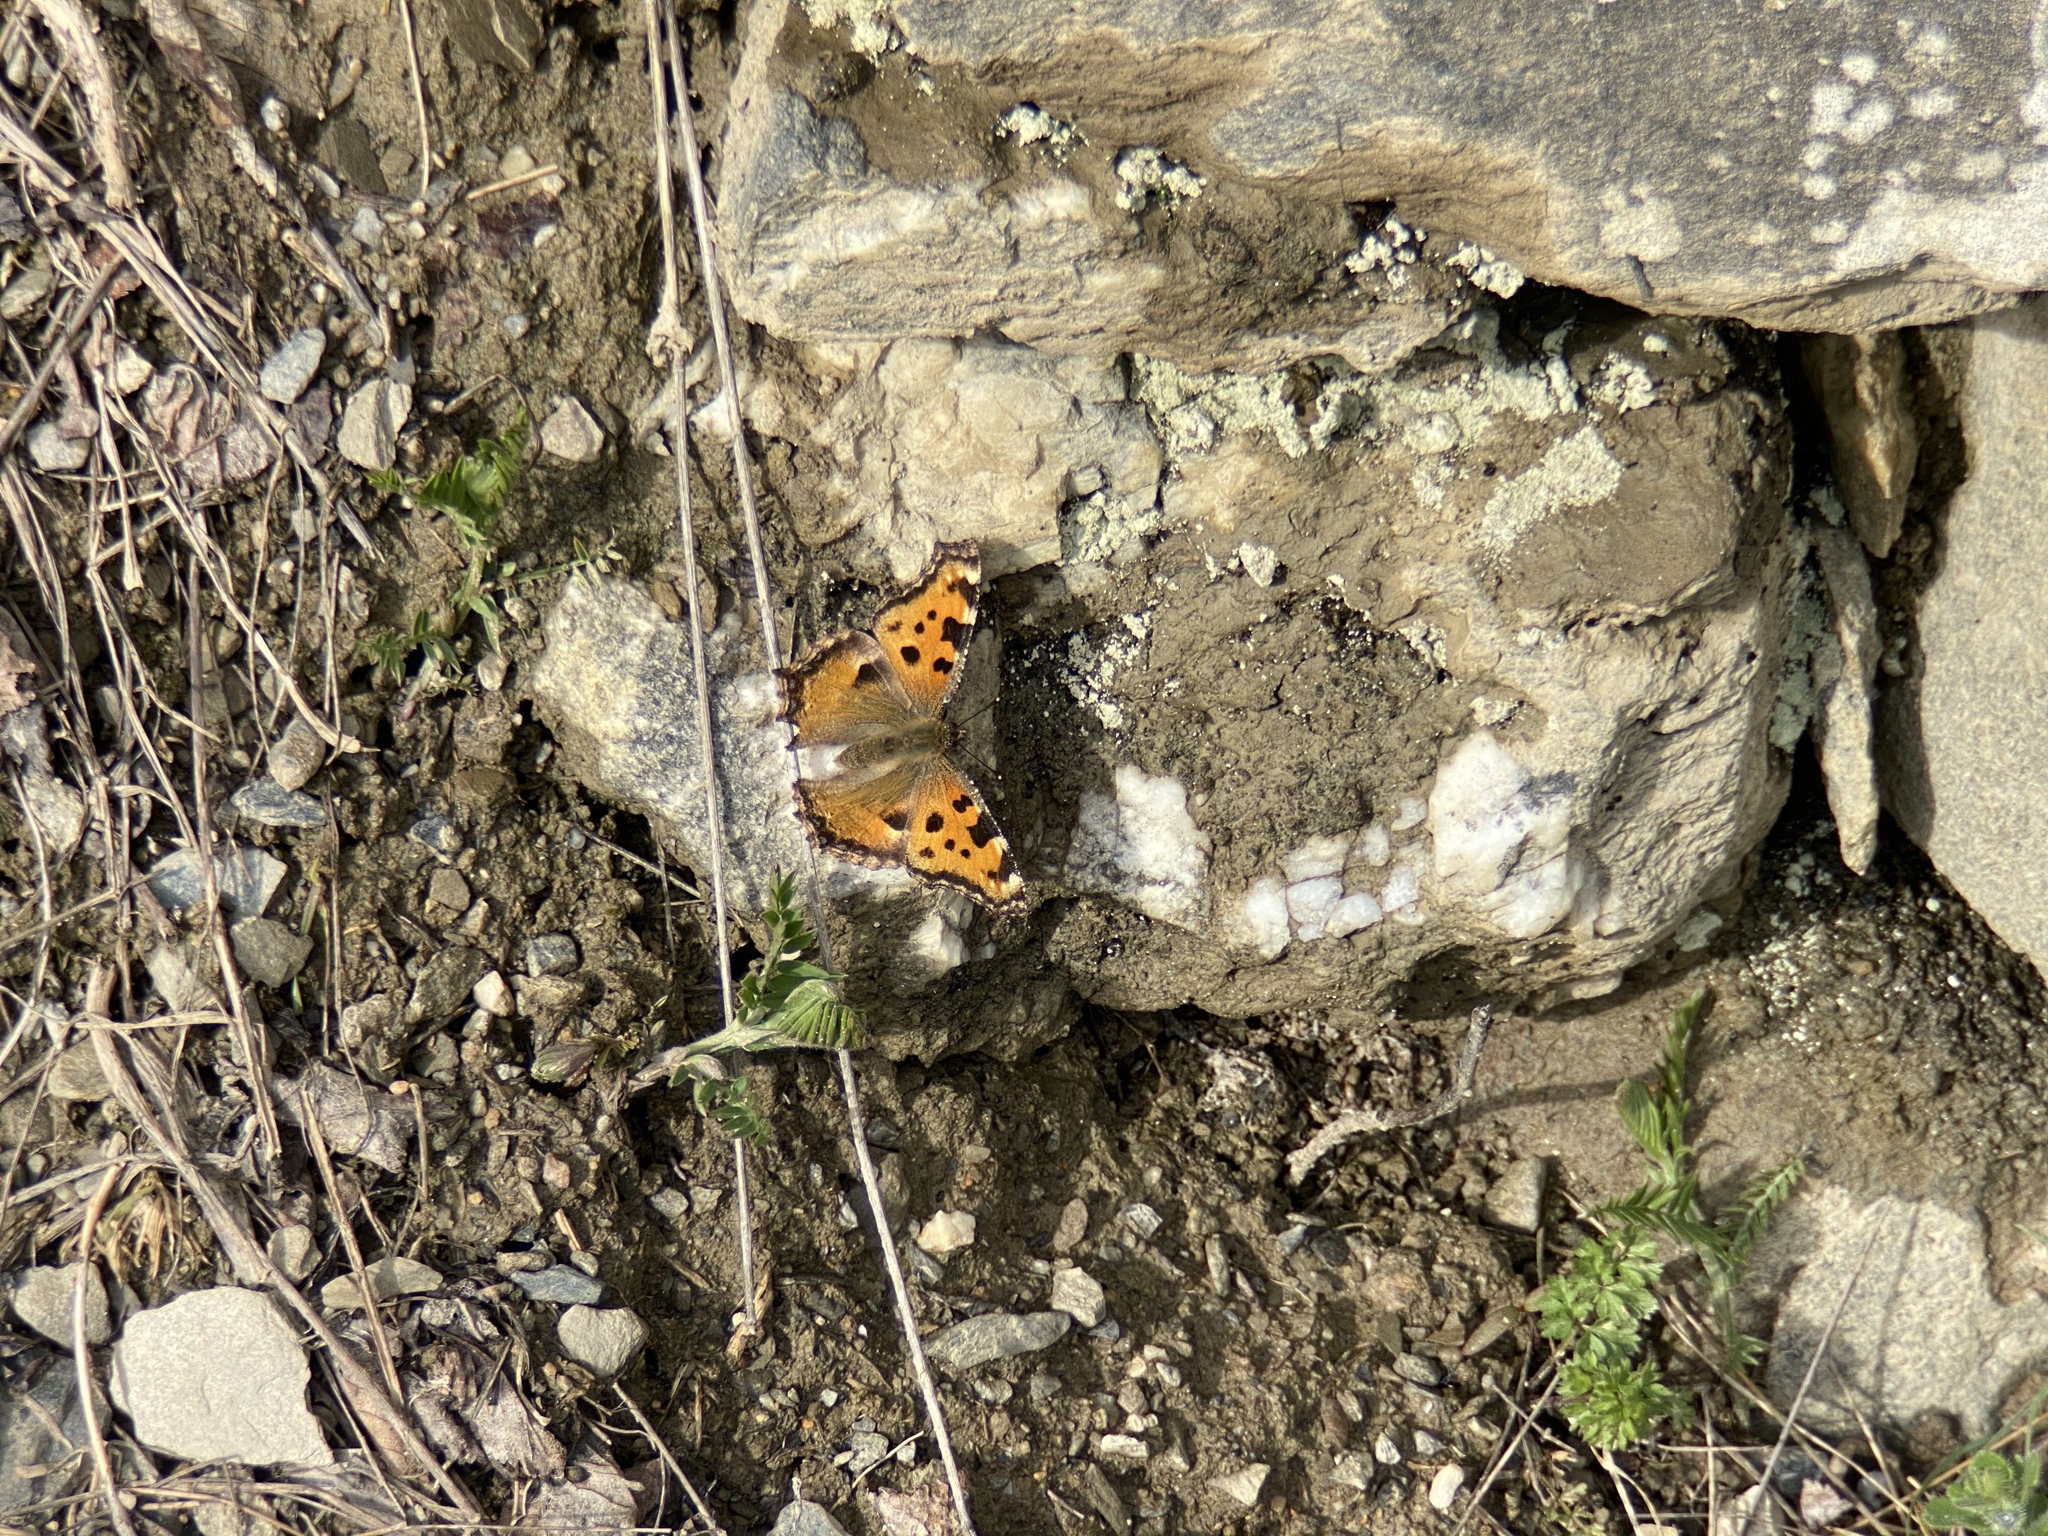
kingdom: Animalia
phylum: Arthropoda
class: Insecta
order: Lepidoptera
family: Nymphalidae
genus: Nymphalis
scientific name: Nymphalis polychloros
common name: Large tortoiseshell
